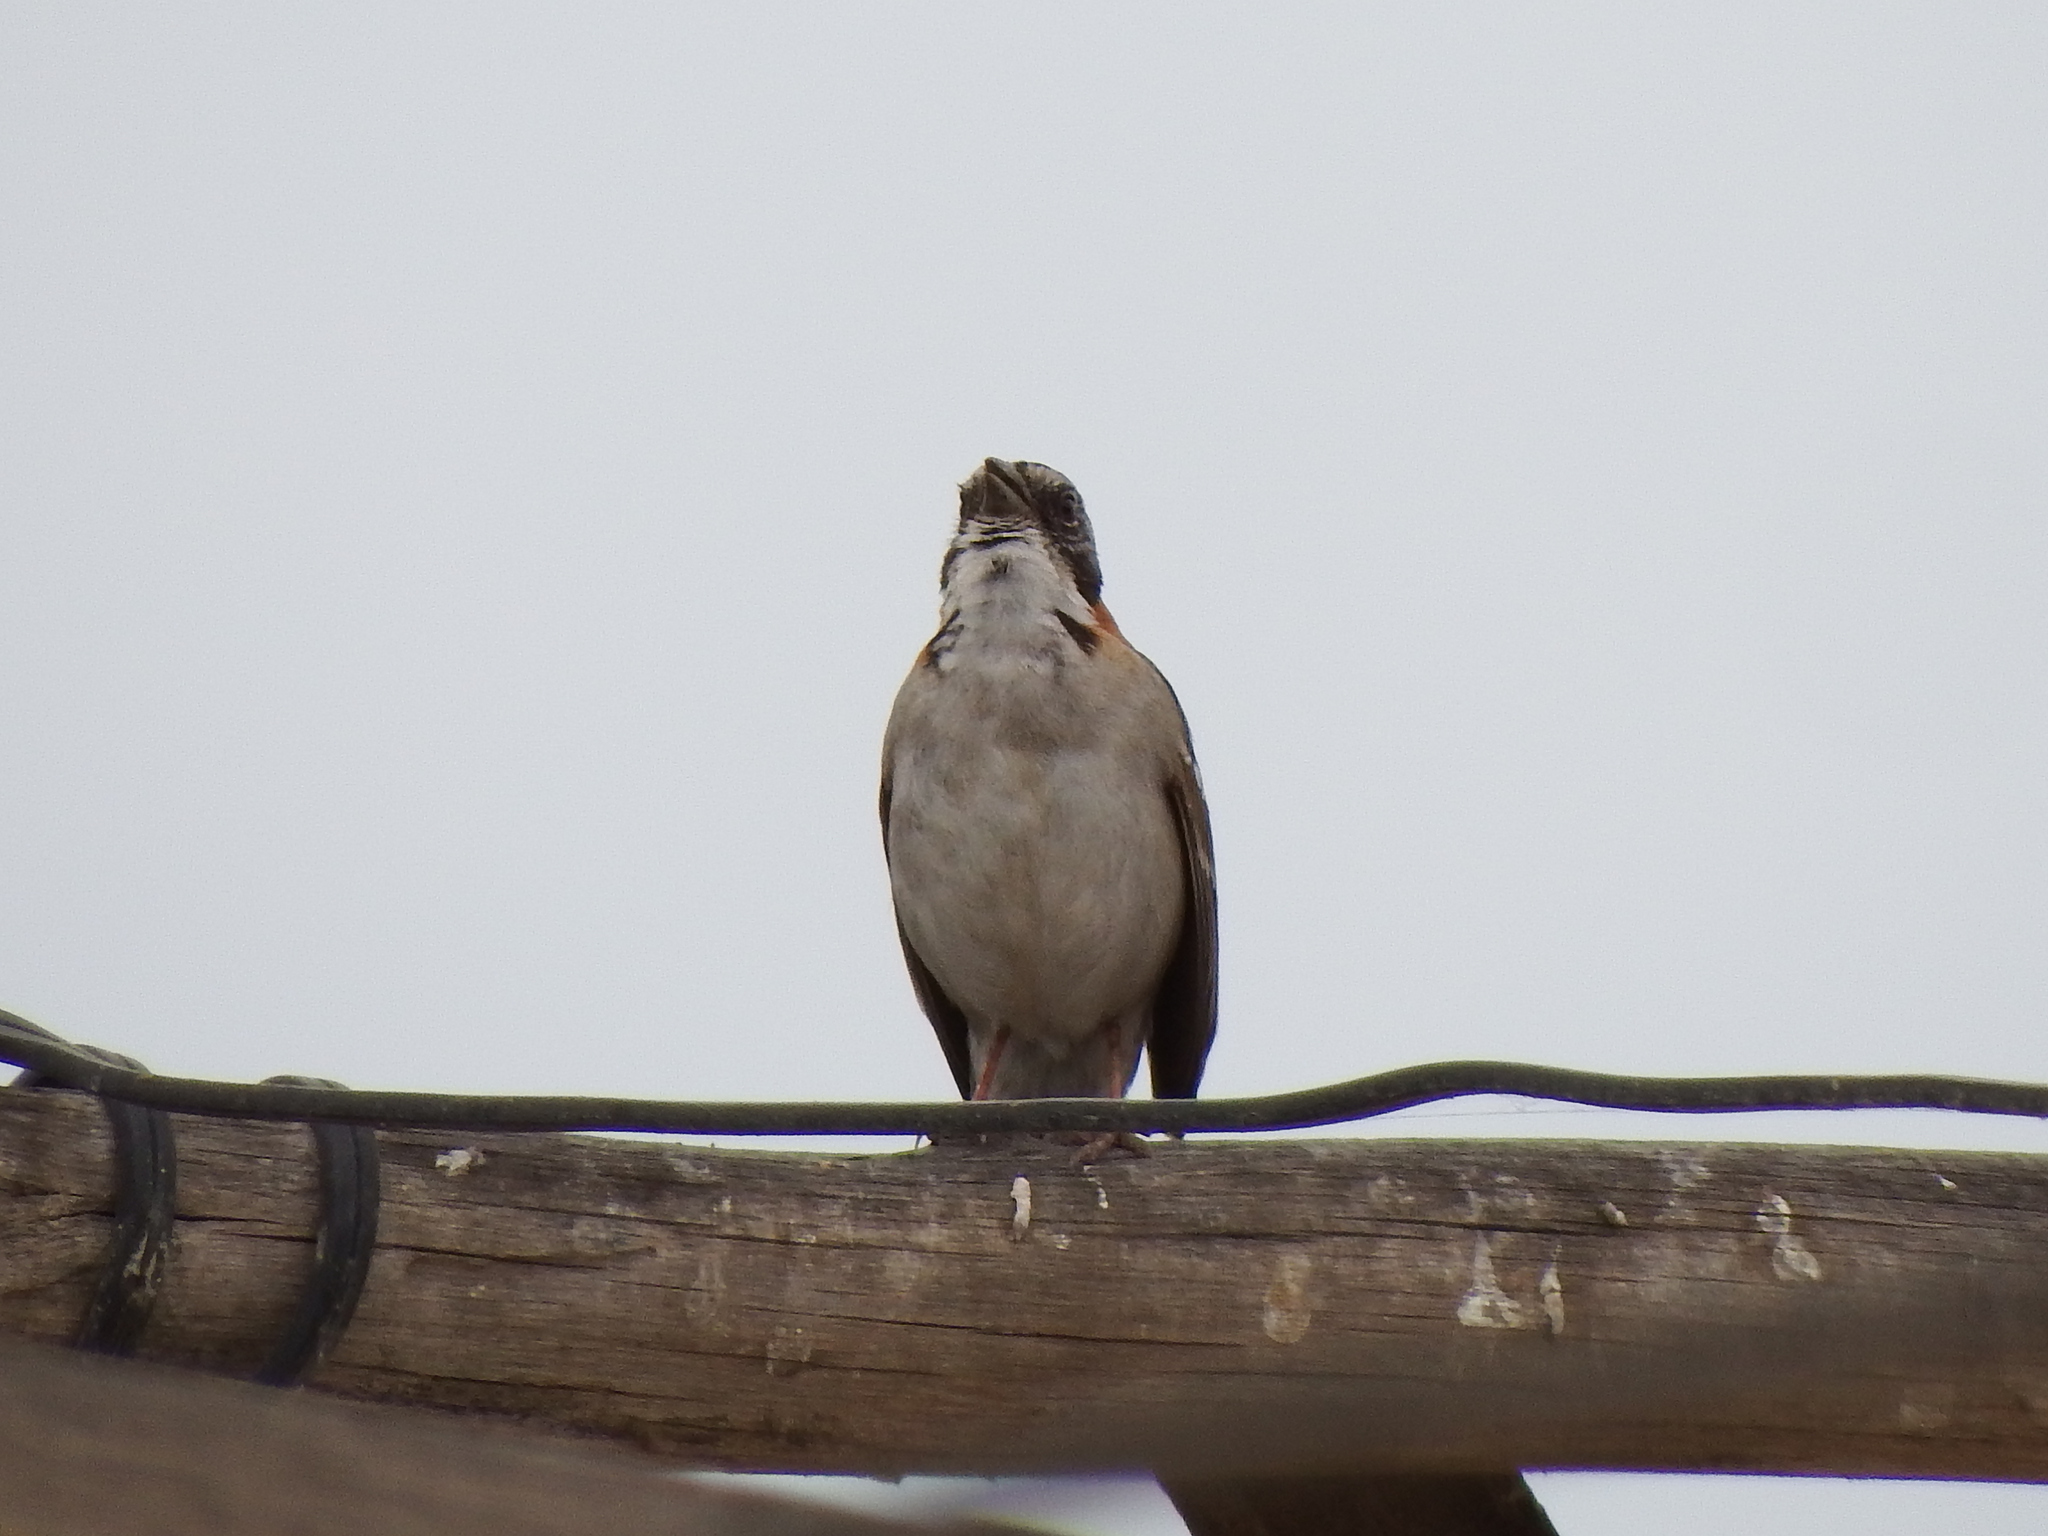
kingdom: Animalia
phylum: Chordata
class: Aves
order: Passeriformes
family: Passerellidae
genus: Zonotrichia
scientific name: Zonotrichia capensis
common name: Rufous-collared sparrow
